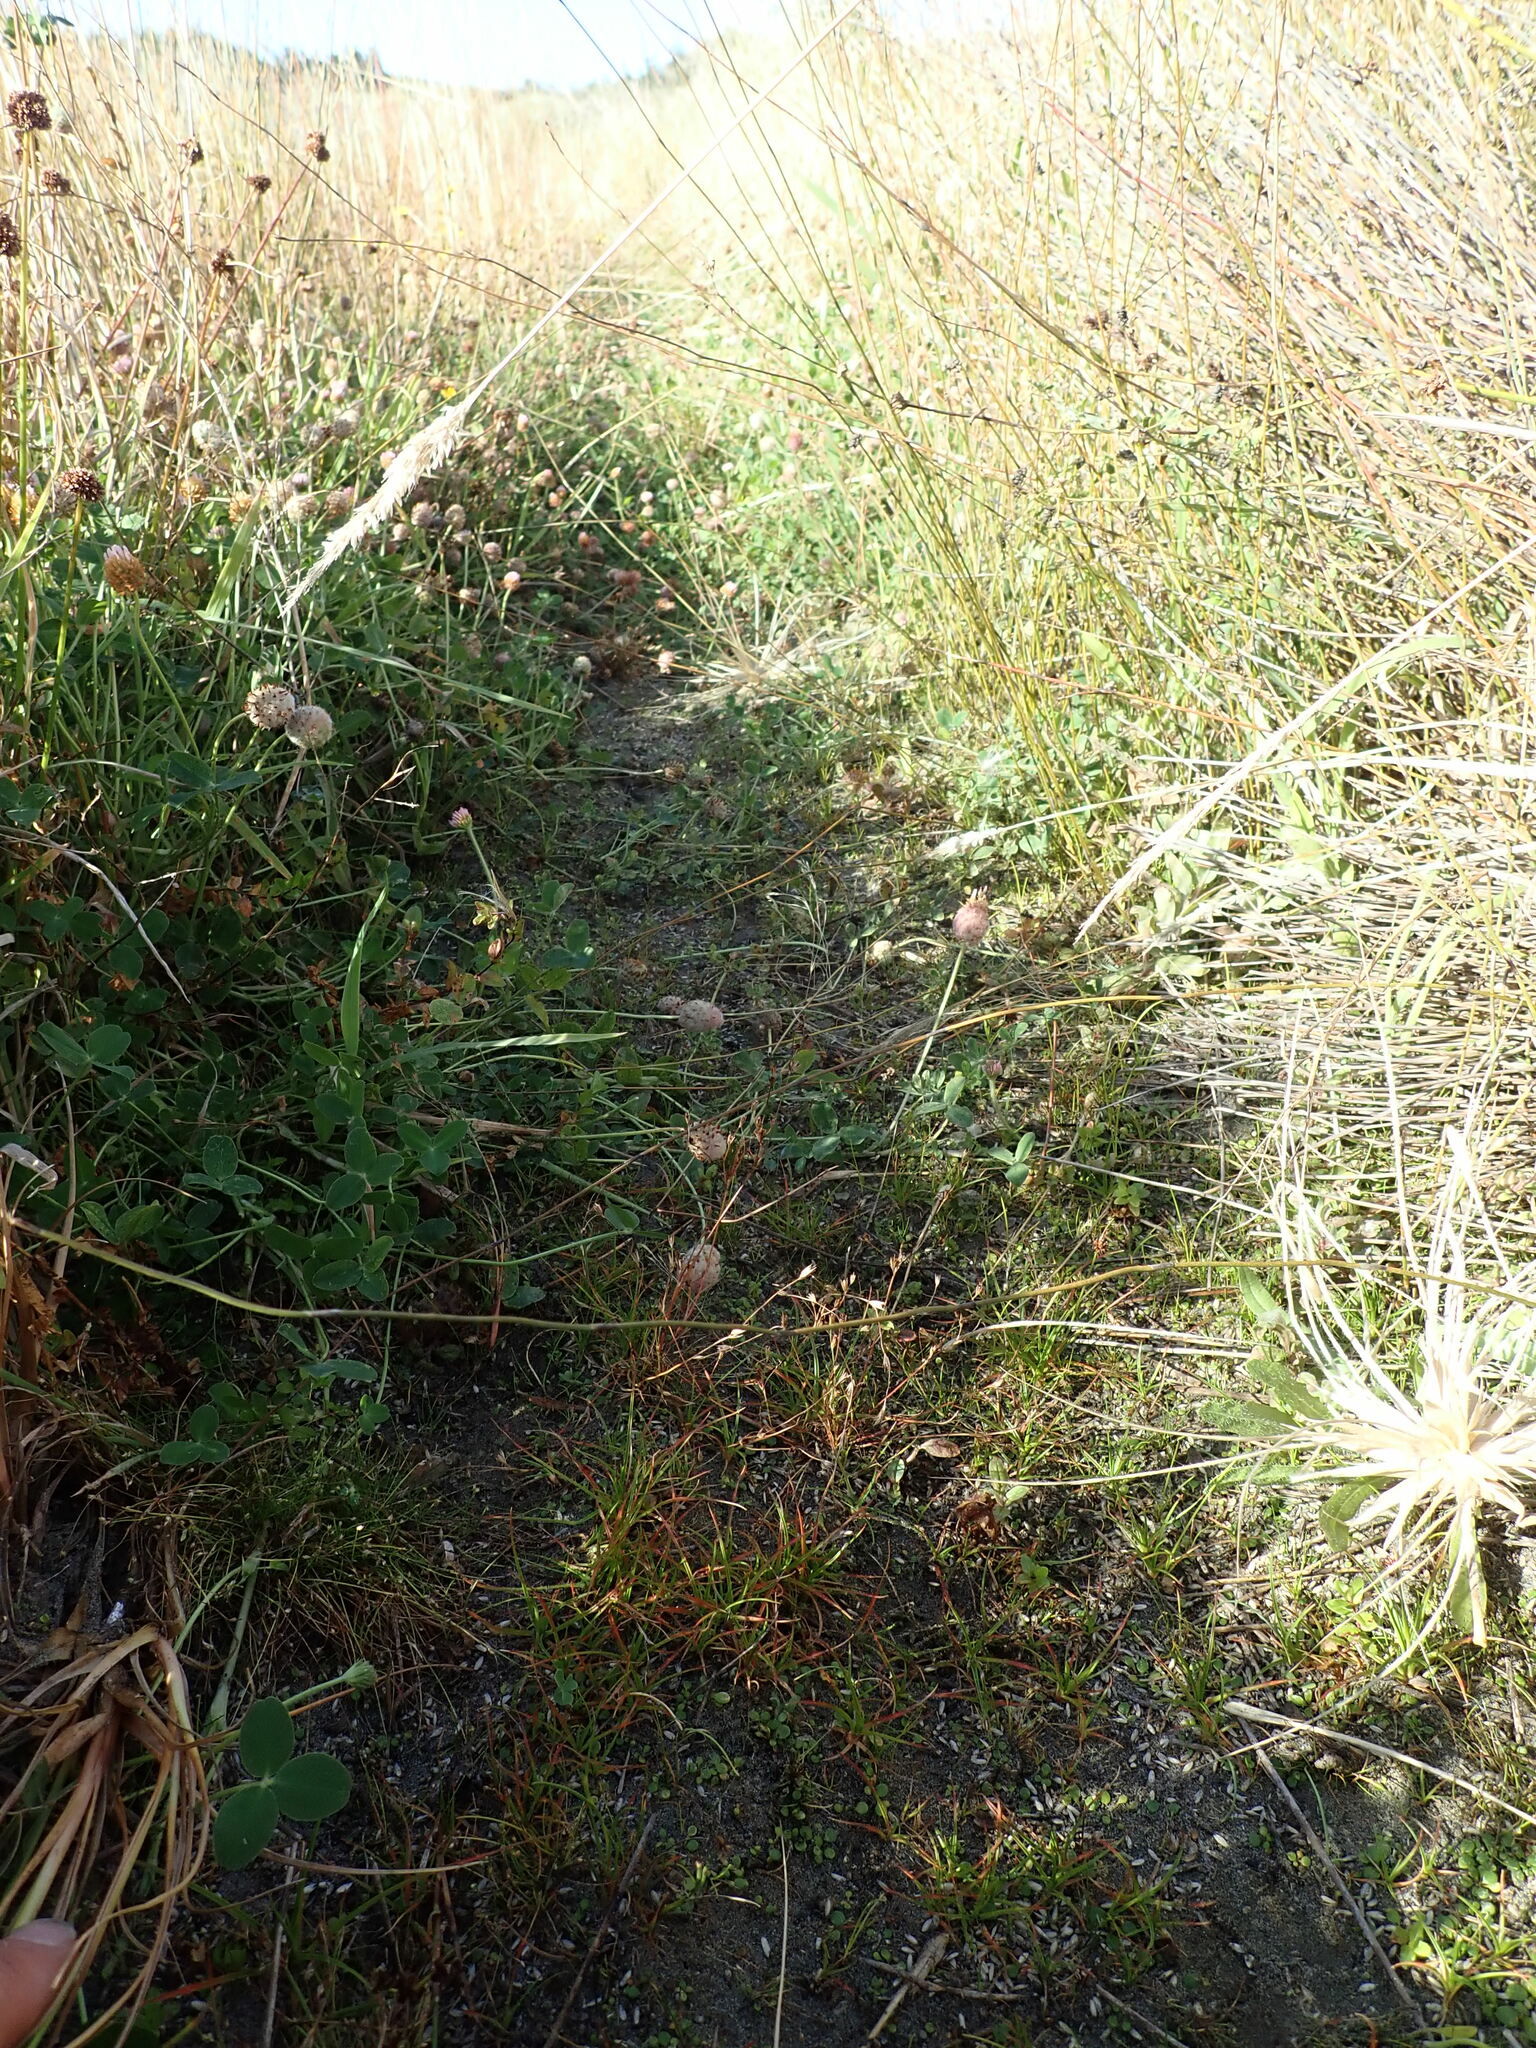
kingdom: Plantae
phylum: Tracheophyta
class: Magnoliopsida
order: Fabales
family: Fabaceae
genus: Trifolium
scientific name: Trifolium fragiferum
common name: Strawberry clover
